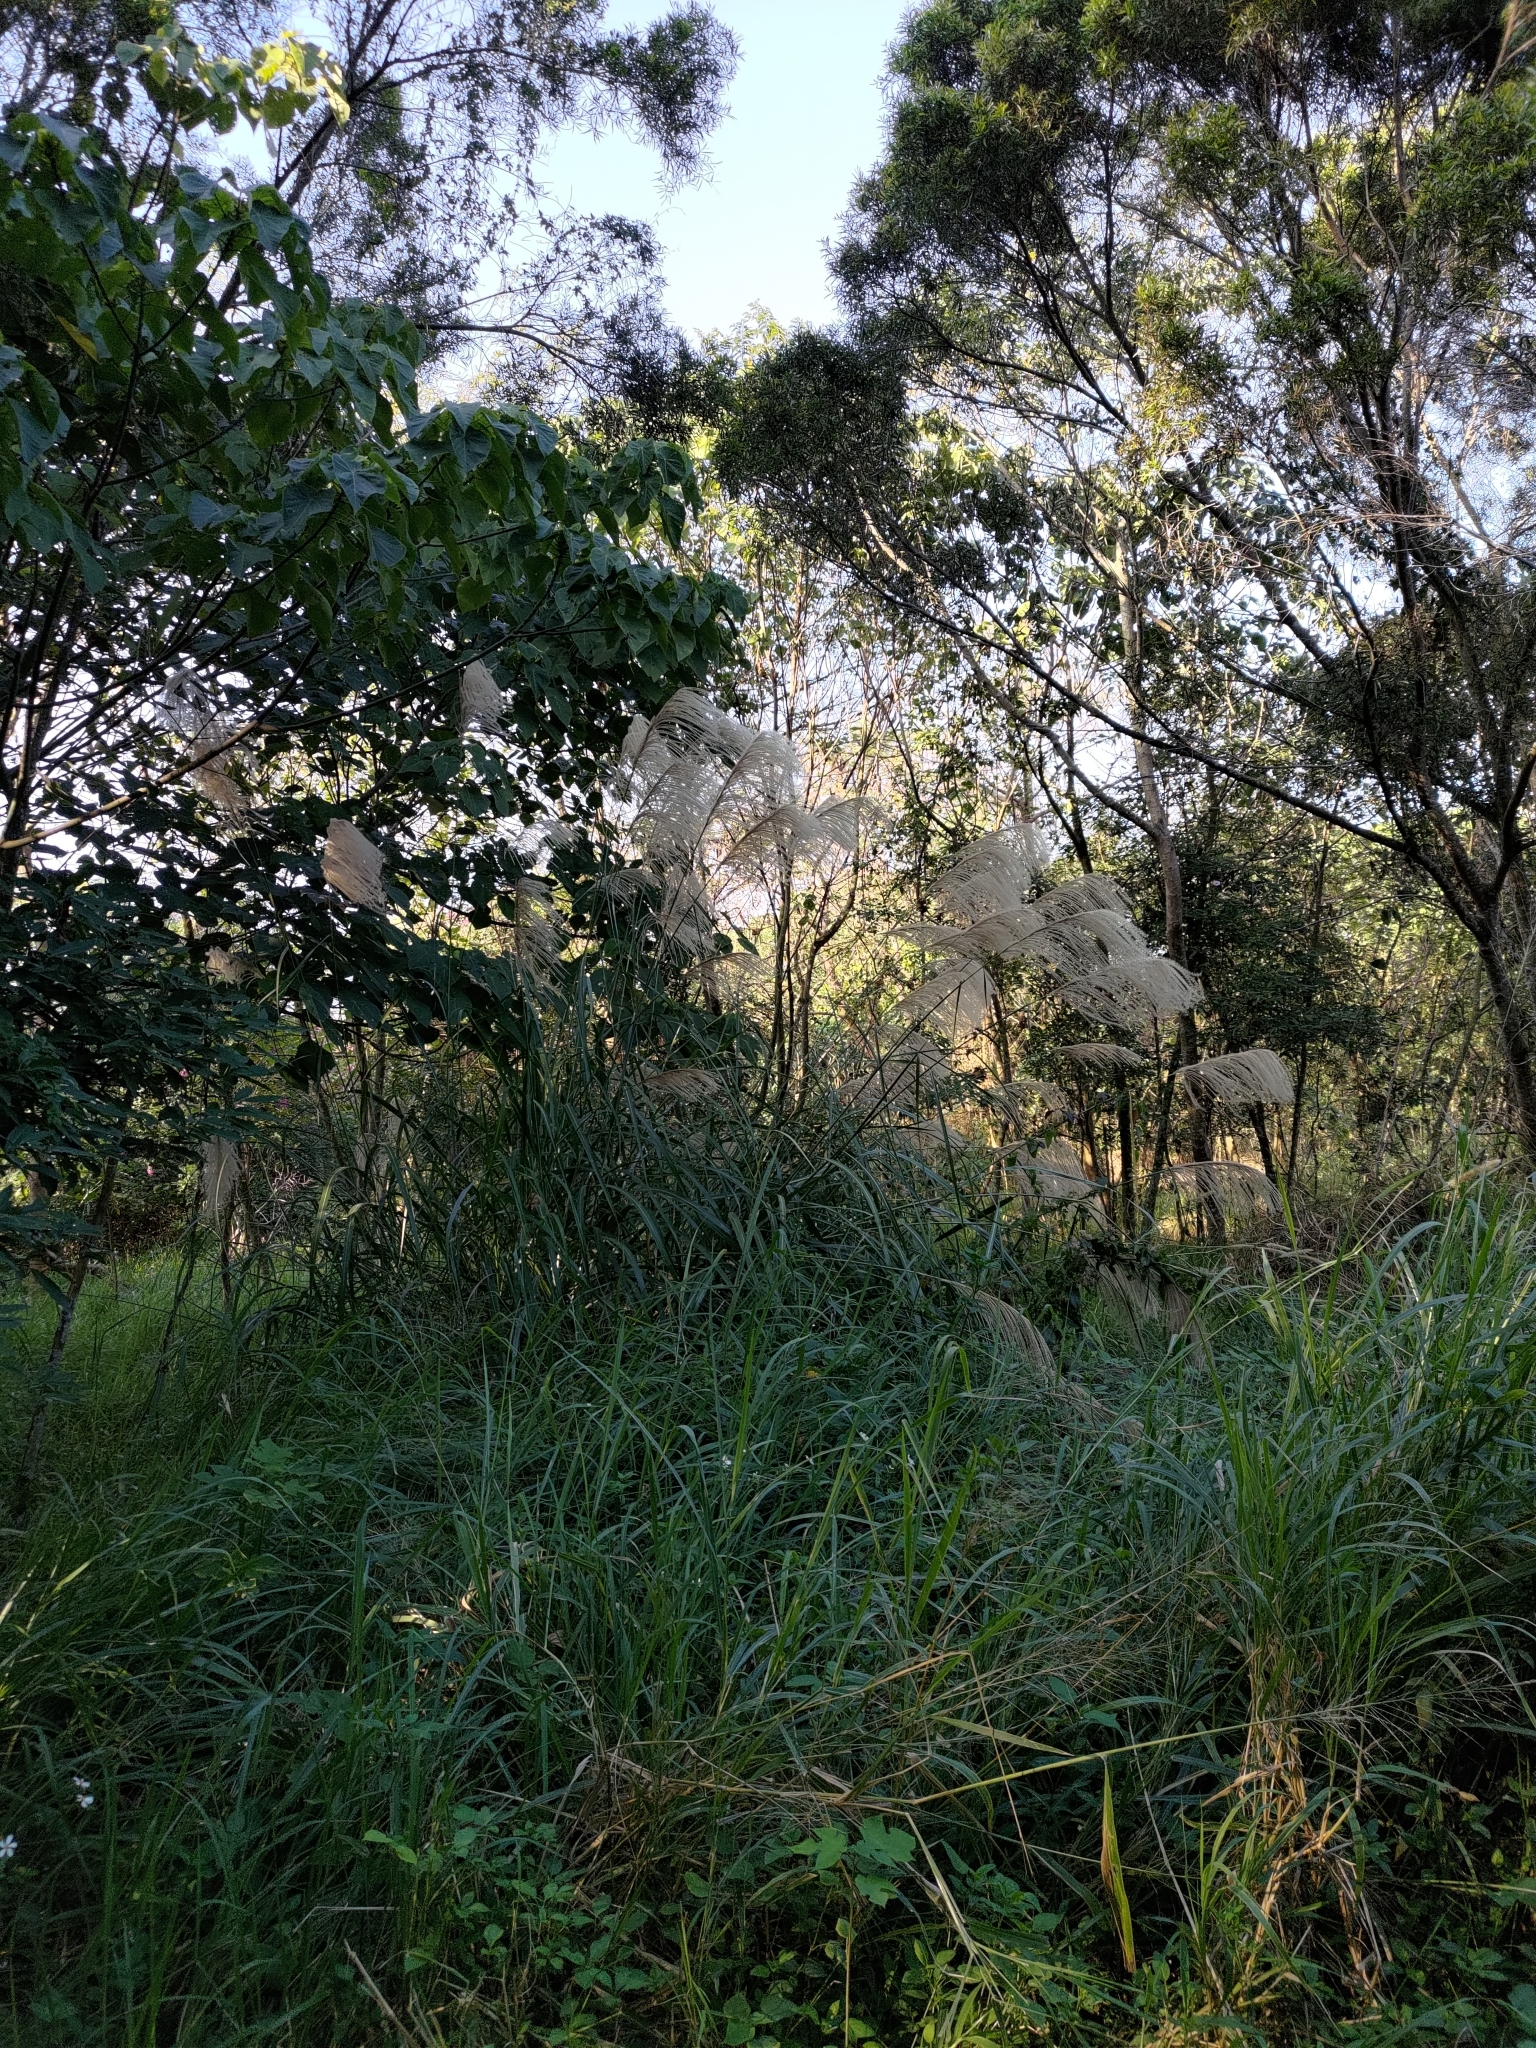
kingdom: Plantae
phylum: Tracheophyta
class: Liliopsida
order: Poales
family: Poaceae
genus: Miscanthus
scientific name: Miscanthus sinensis
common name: Chinese silvergrass
